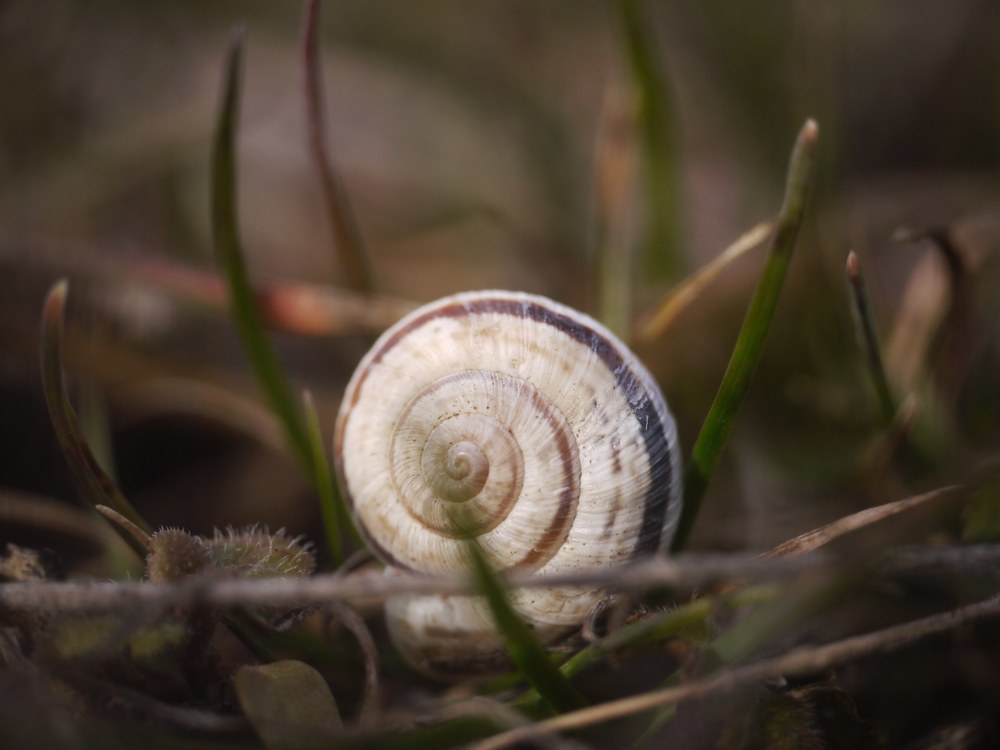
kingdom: Animalia
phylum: Mollusca
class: Gastropoda
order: Stylommatophora
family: Geomitridae
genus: Helicopsis
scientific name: Helicopsis lunulata
